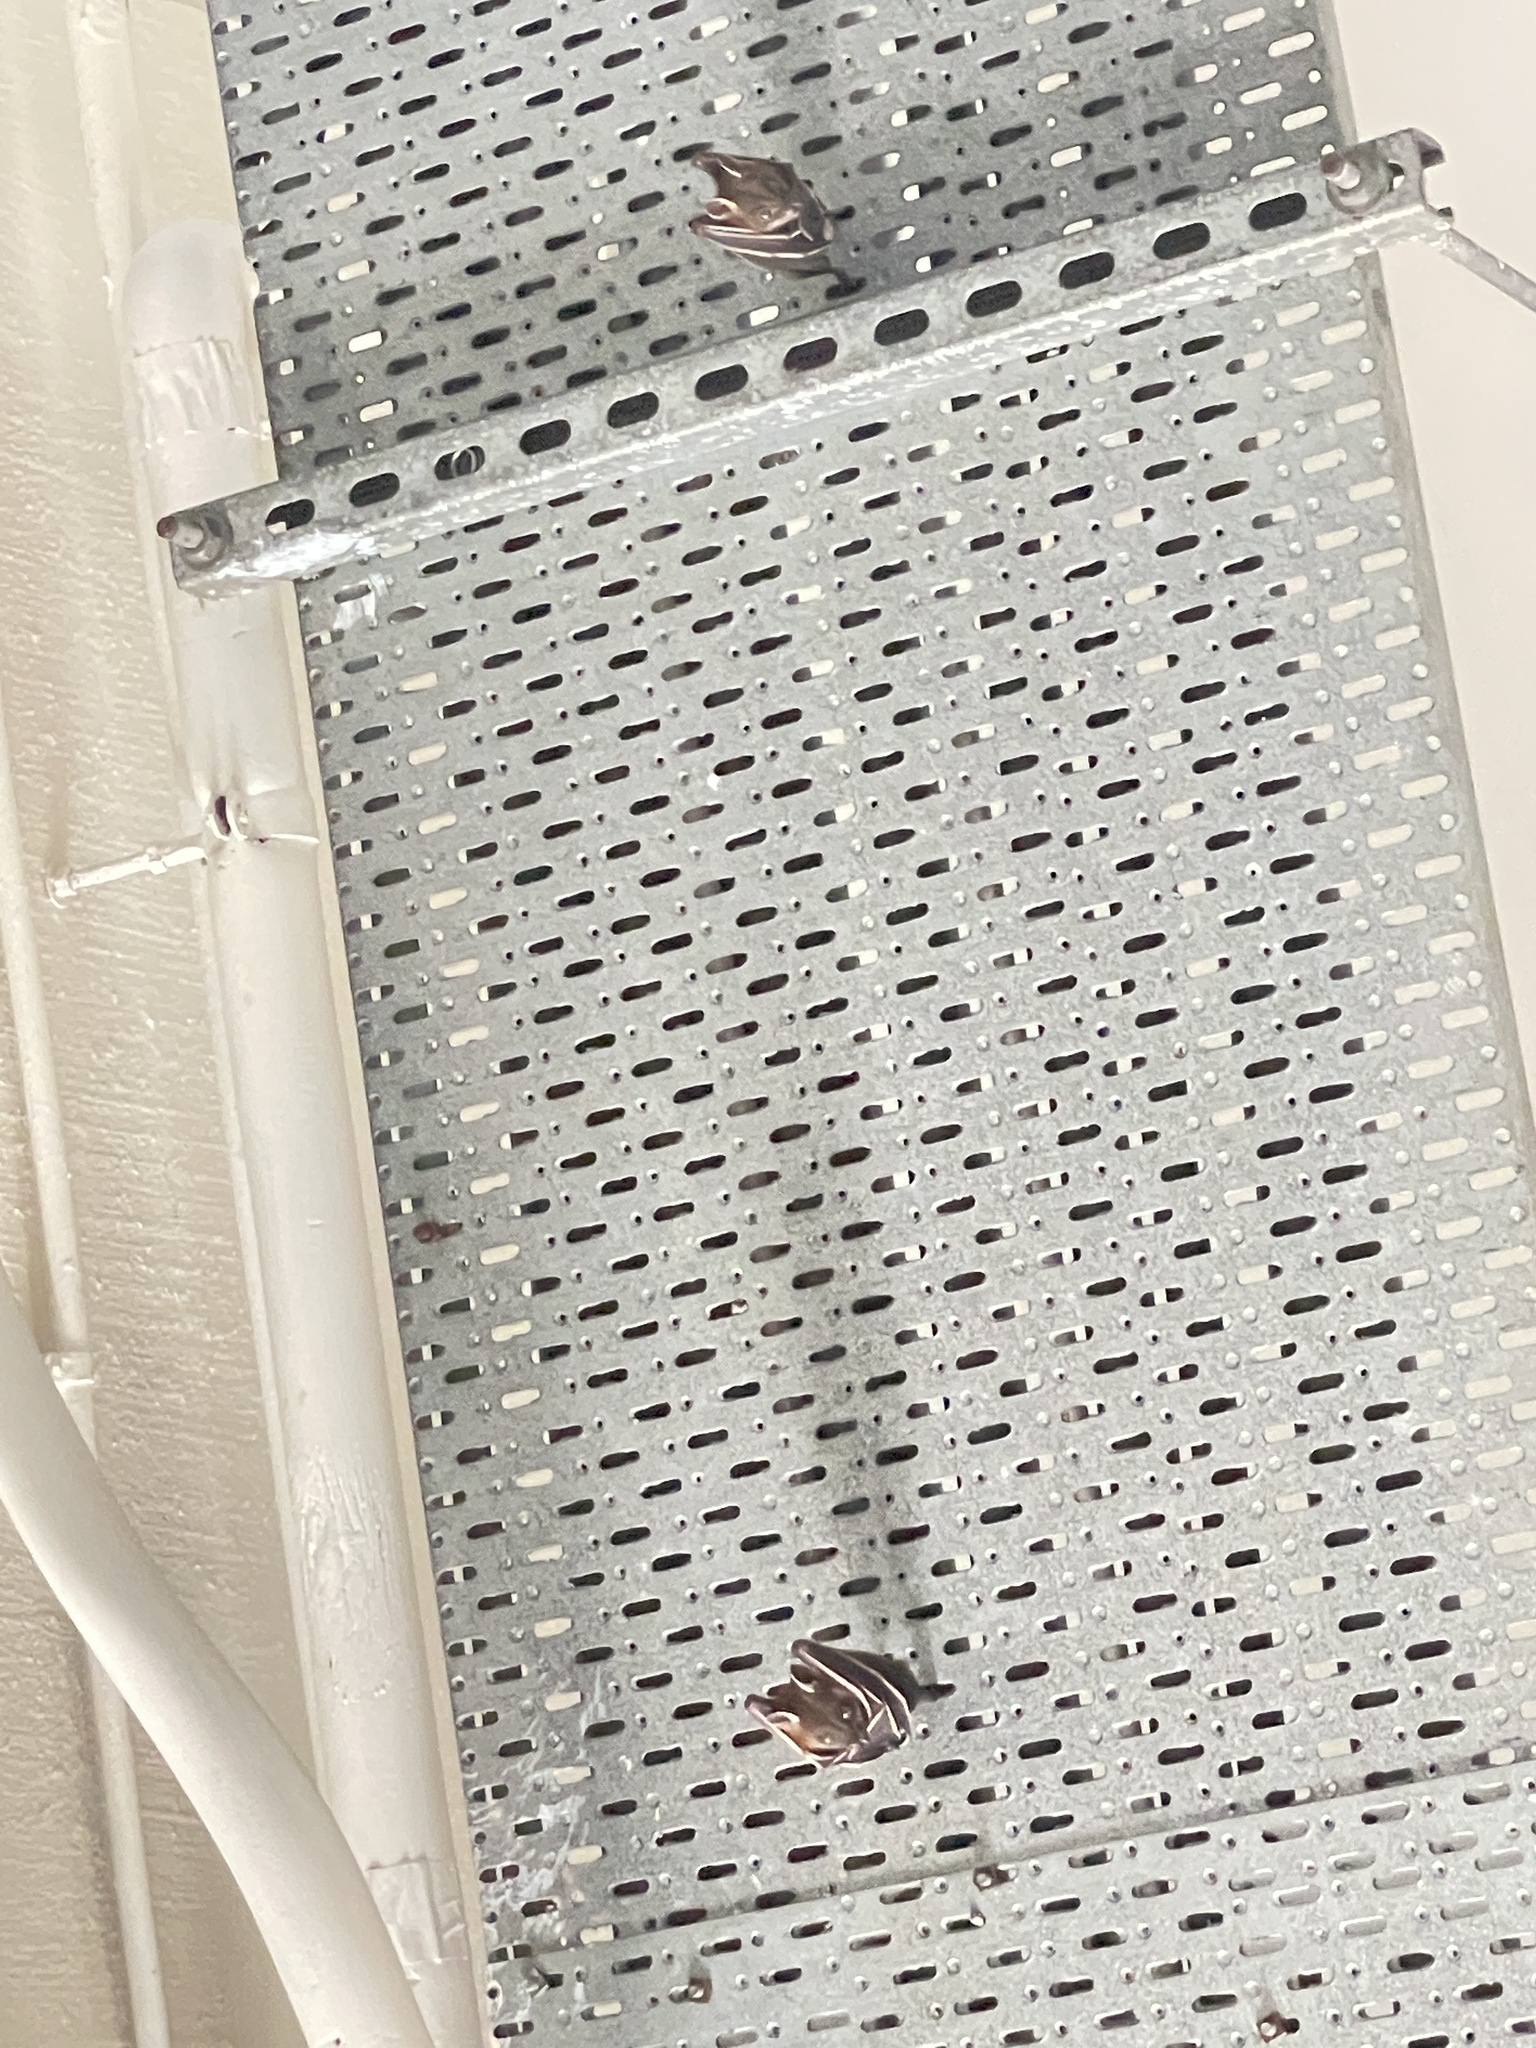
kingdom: Animalia
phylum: Chordata
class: Mammalia
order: Chiroptera
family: Pteropodidae
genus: Cynopterus
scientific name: Cynopterus sphinx
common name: Greater short-nosed fruit bat
